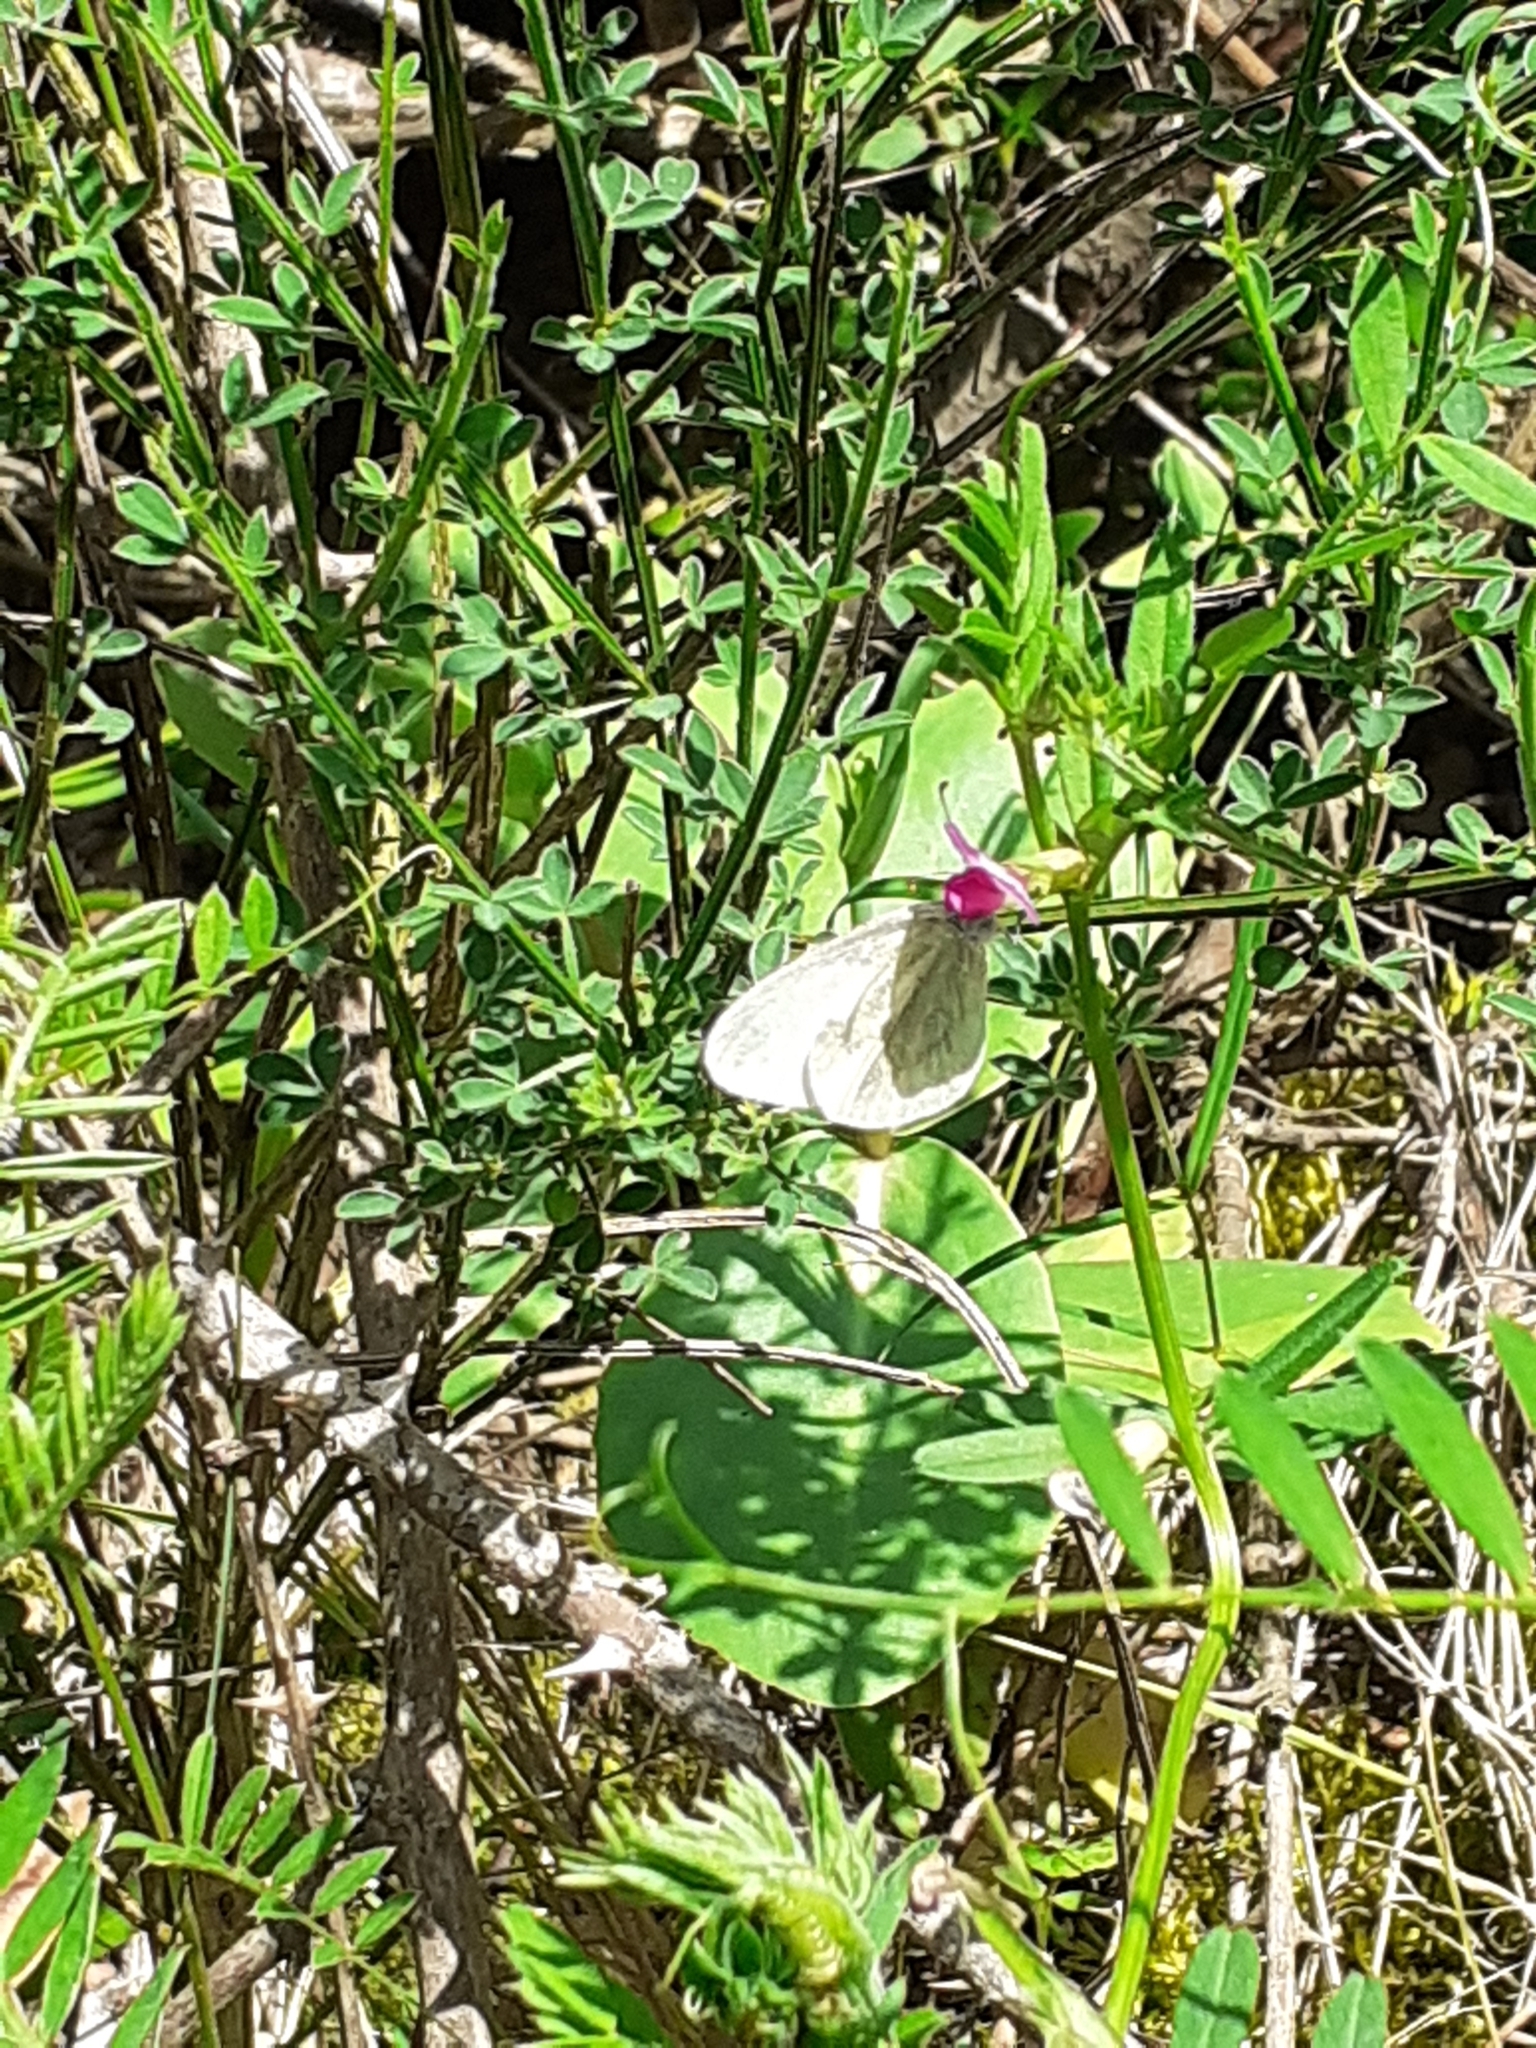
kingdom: Animalia
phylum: Arthropoda
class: Insecta
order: Lepidoptera
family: Pieridae
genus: Leptidea
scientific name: Leptidea sinapis
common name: Wood white
